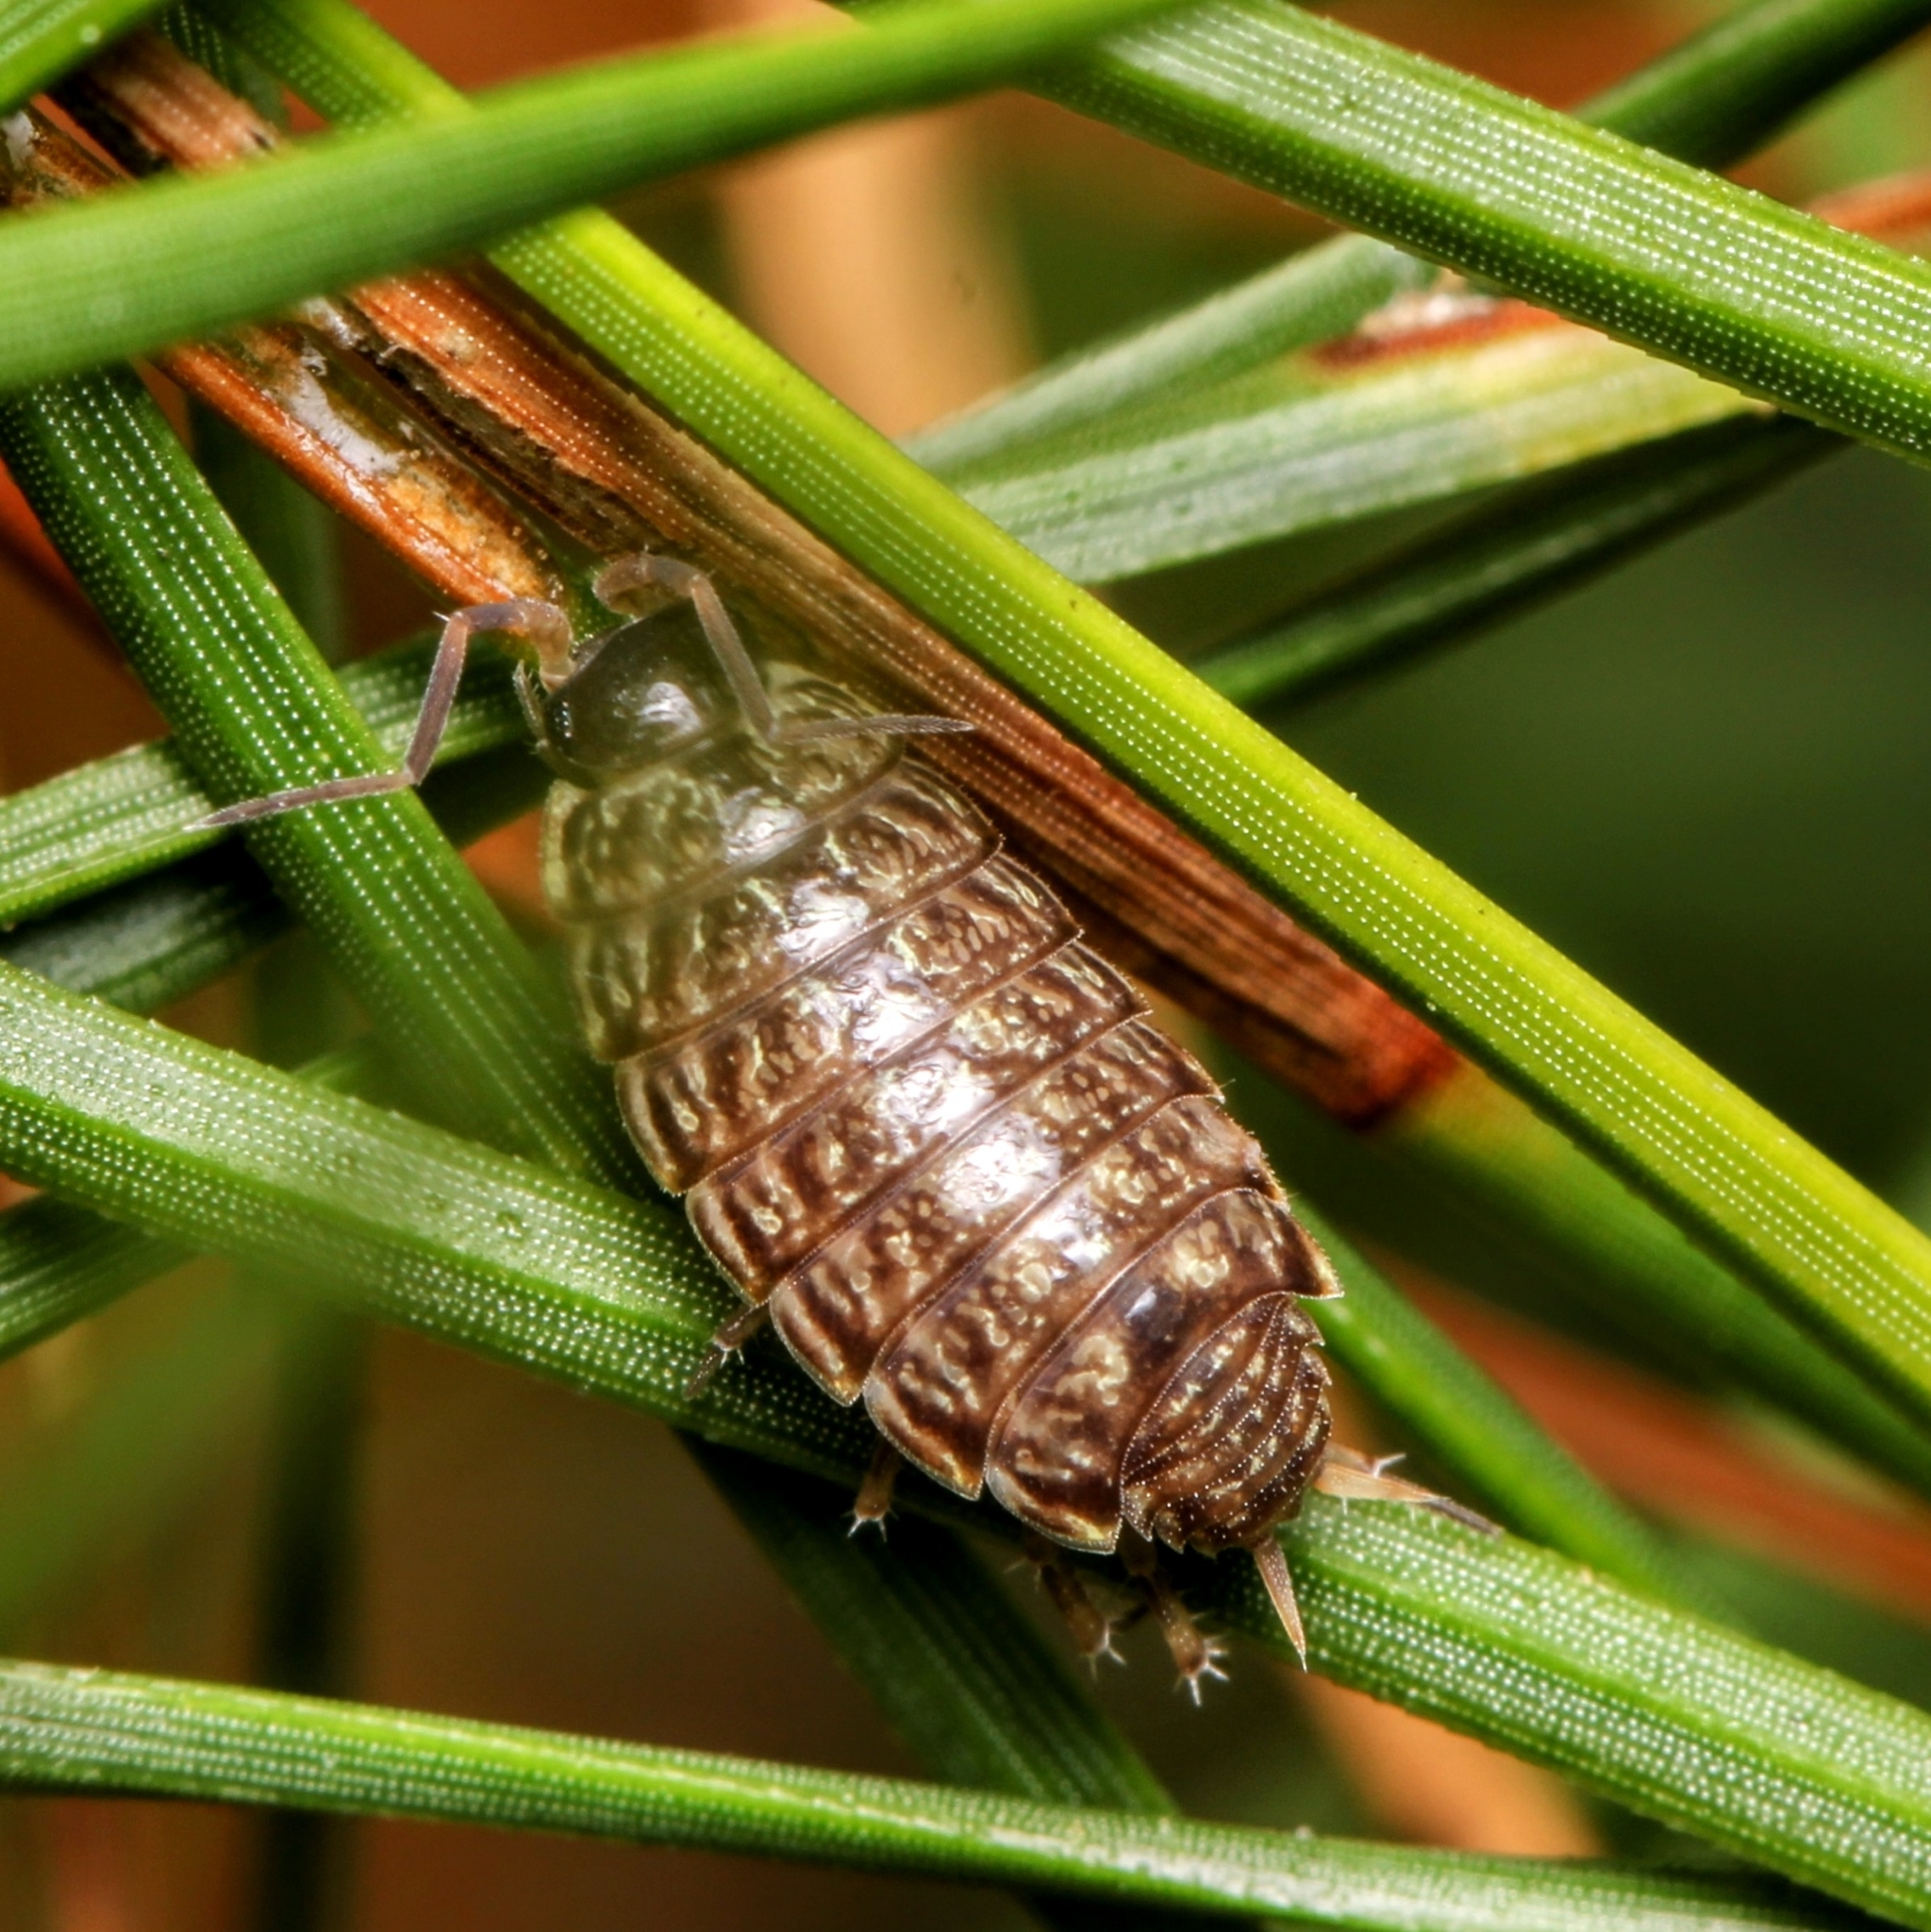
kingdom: Animalia
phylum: Arthropoda
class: Malacostraca
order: Isopoda
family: Philosciidae
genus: Philoscia
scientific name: Philoscia muscorum
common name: Common striped woodlouse
